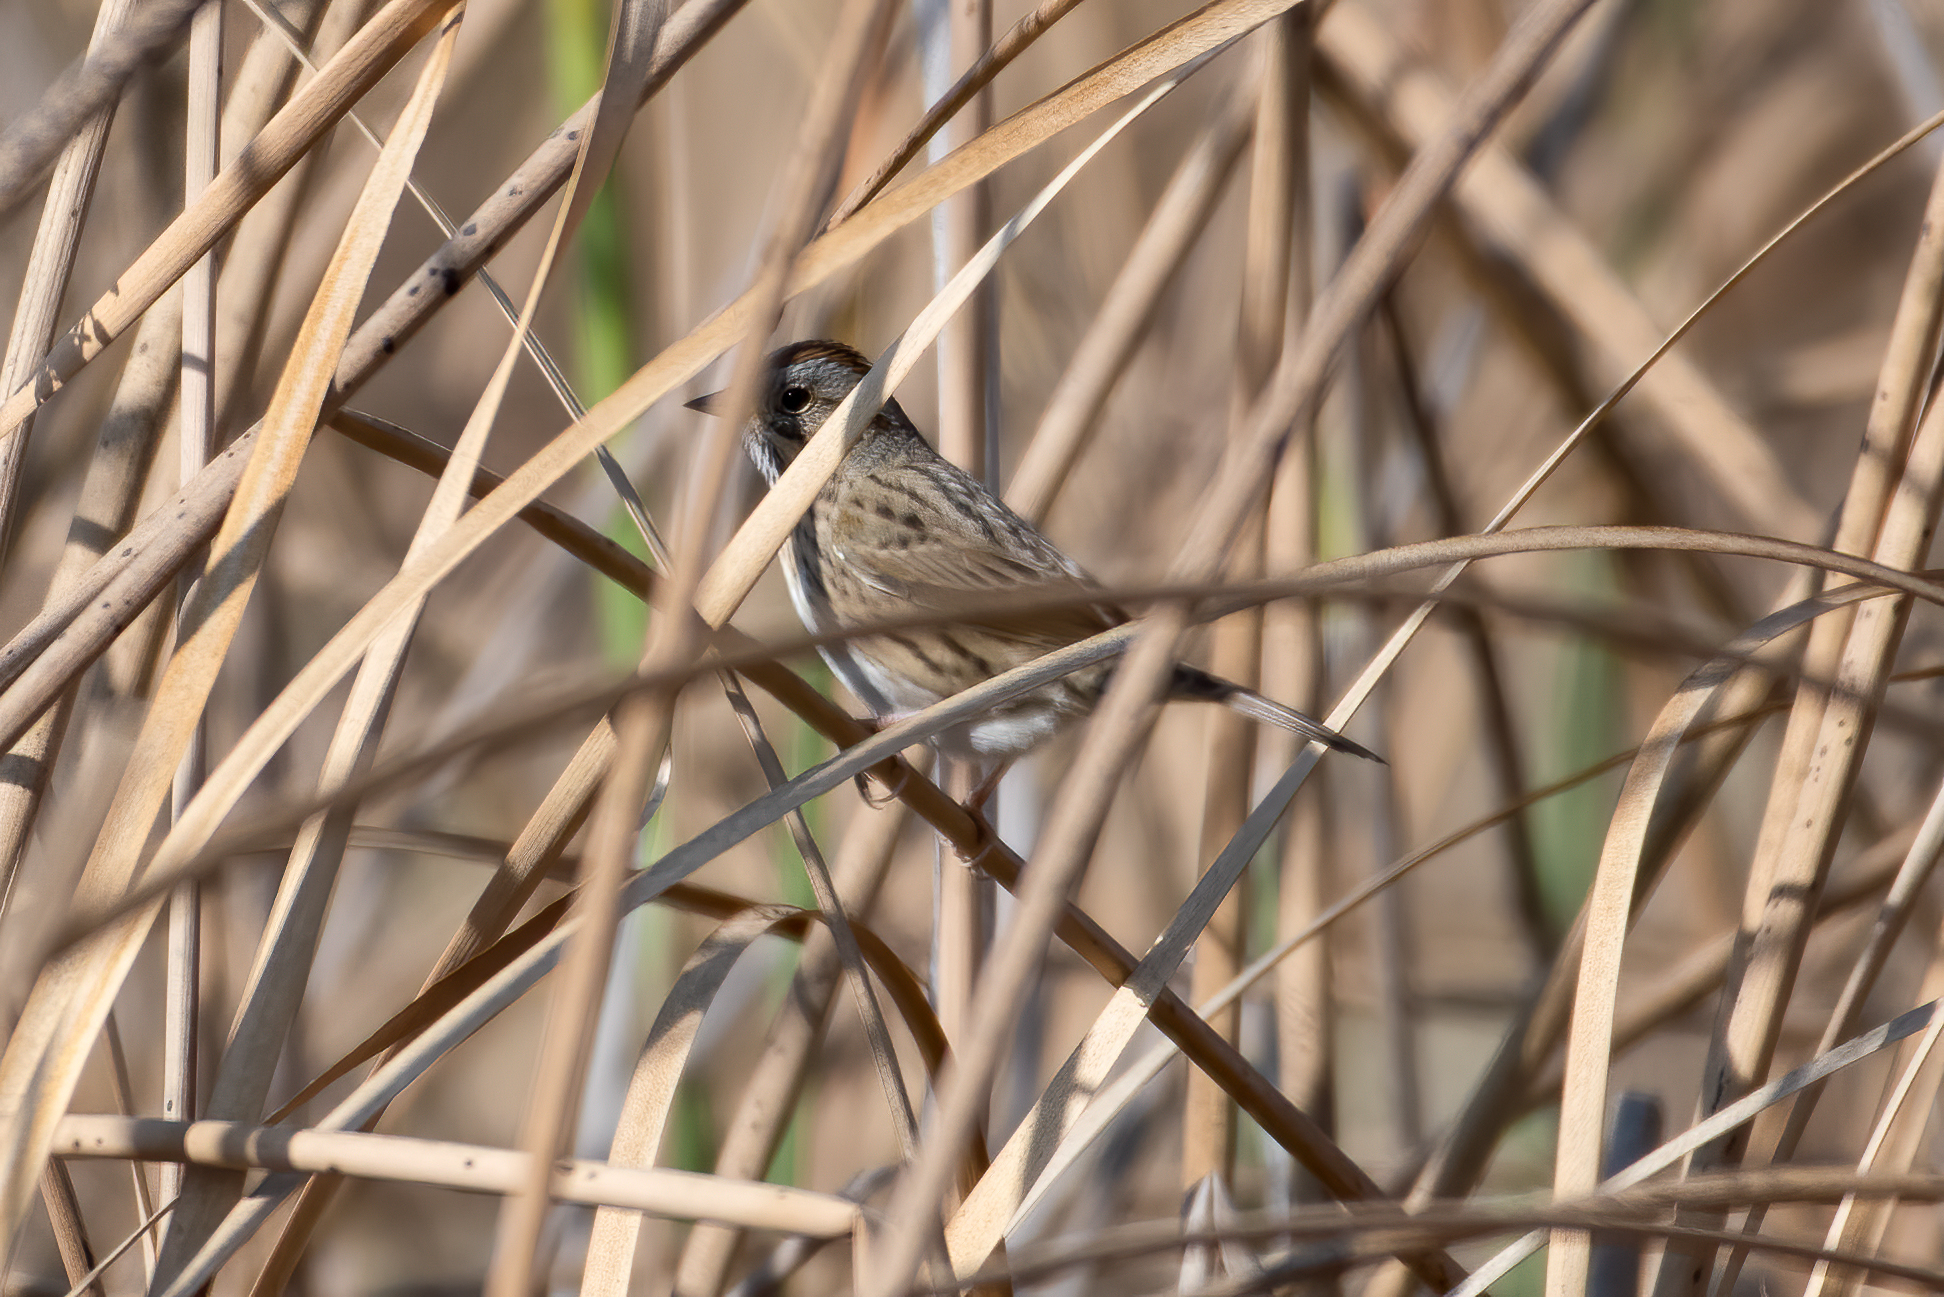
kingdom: Animalia
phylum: Chordata
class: Aves
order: Passeriformes
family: Passerellidae
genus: Melospiza
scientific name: Melospiza lincolnii
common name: Lincoln's sparrow
